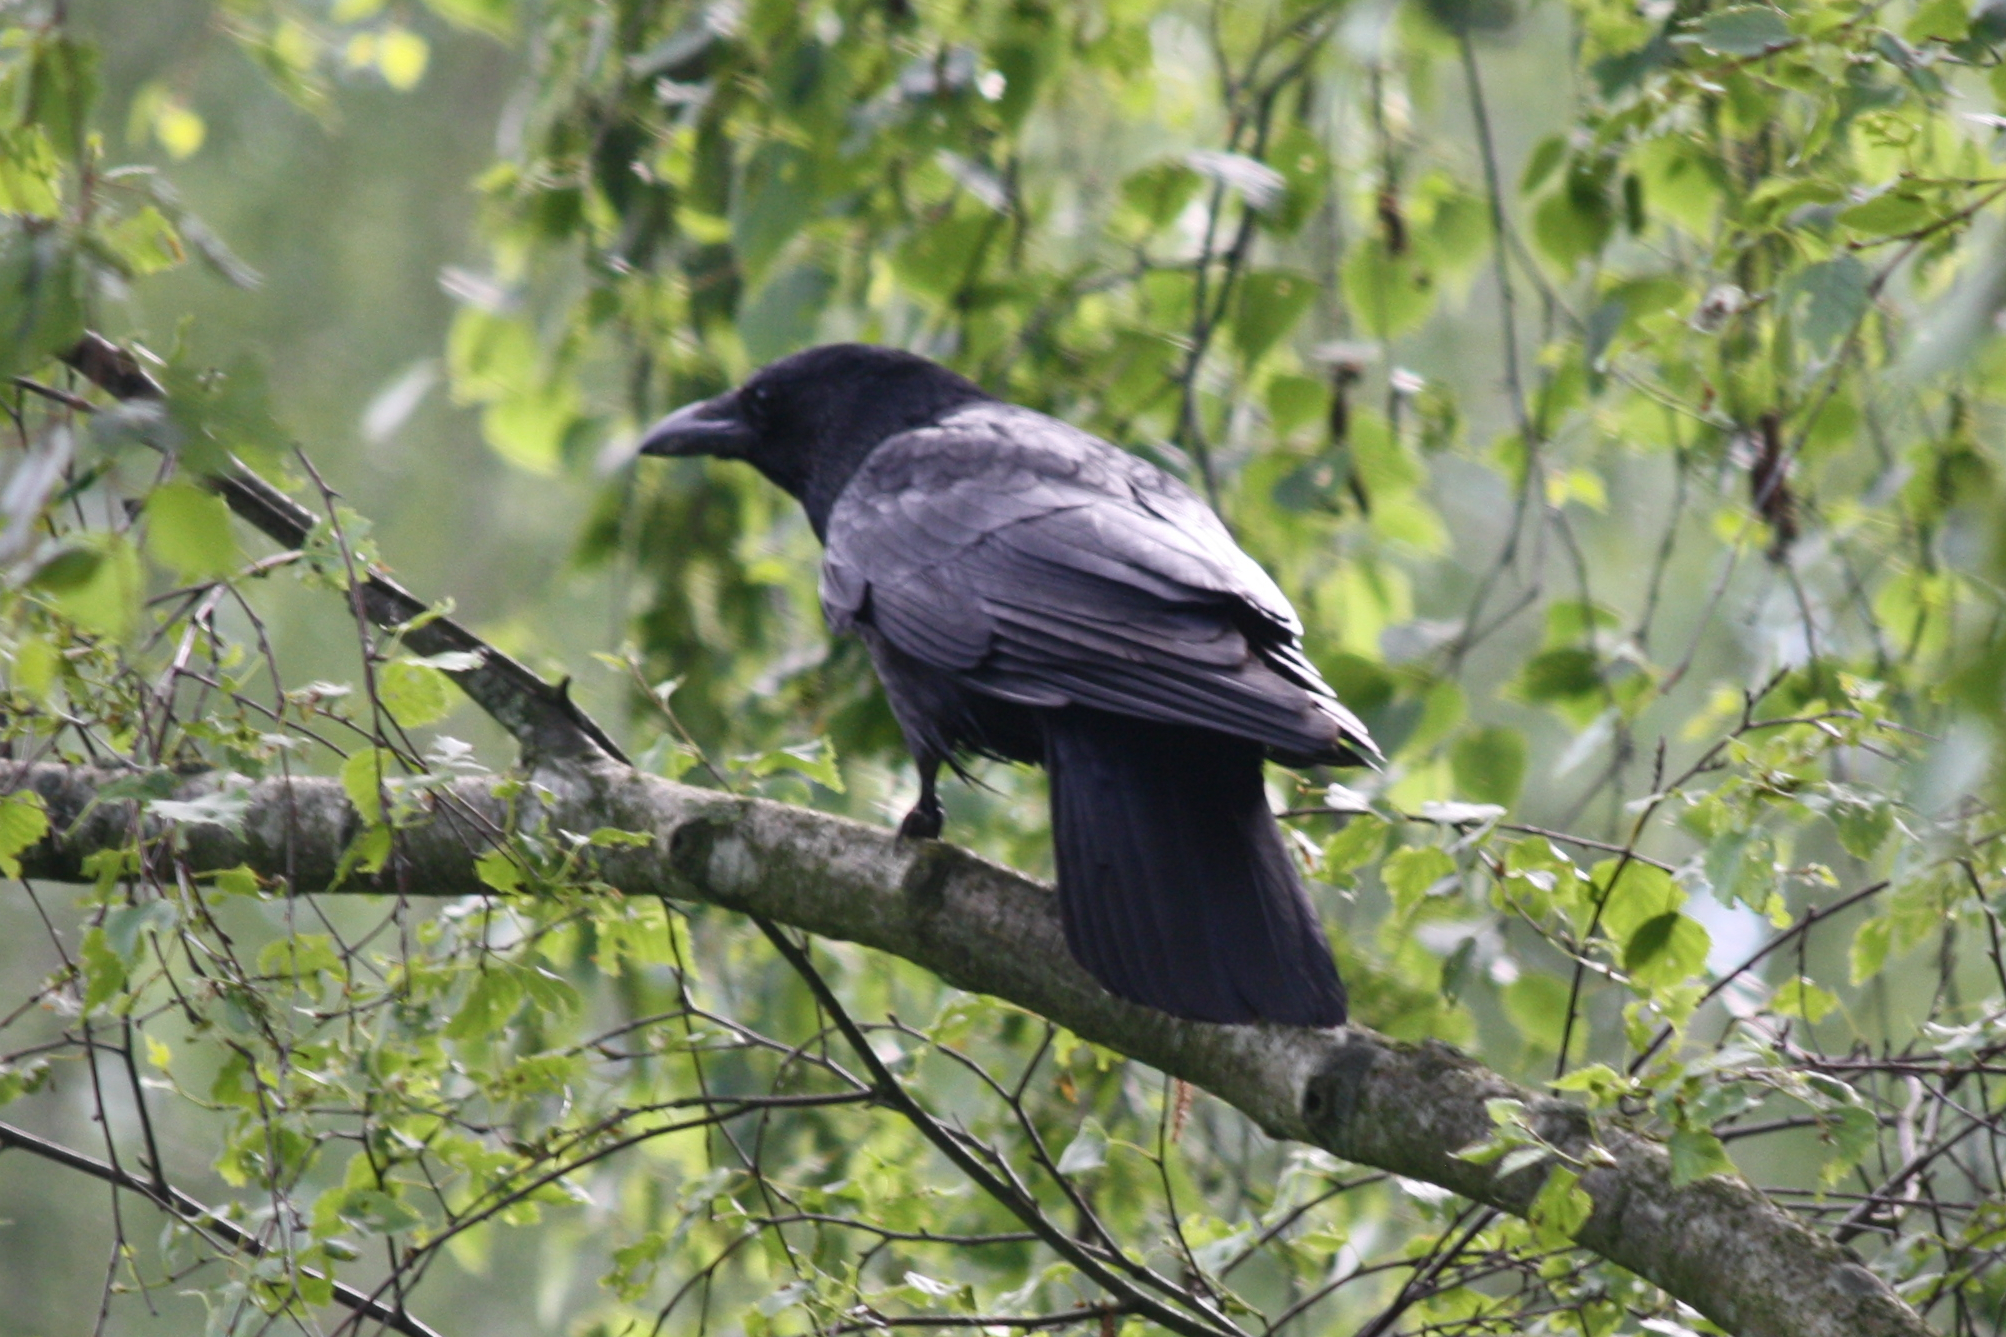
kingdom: Animalia
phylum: Chordata
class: Aves
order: Passeriformes
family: Corvidae
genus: Corvus
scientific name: Corvus corone
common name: Carrion crow
